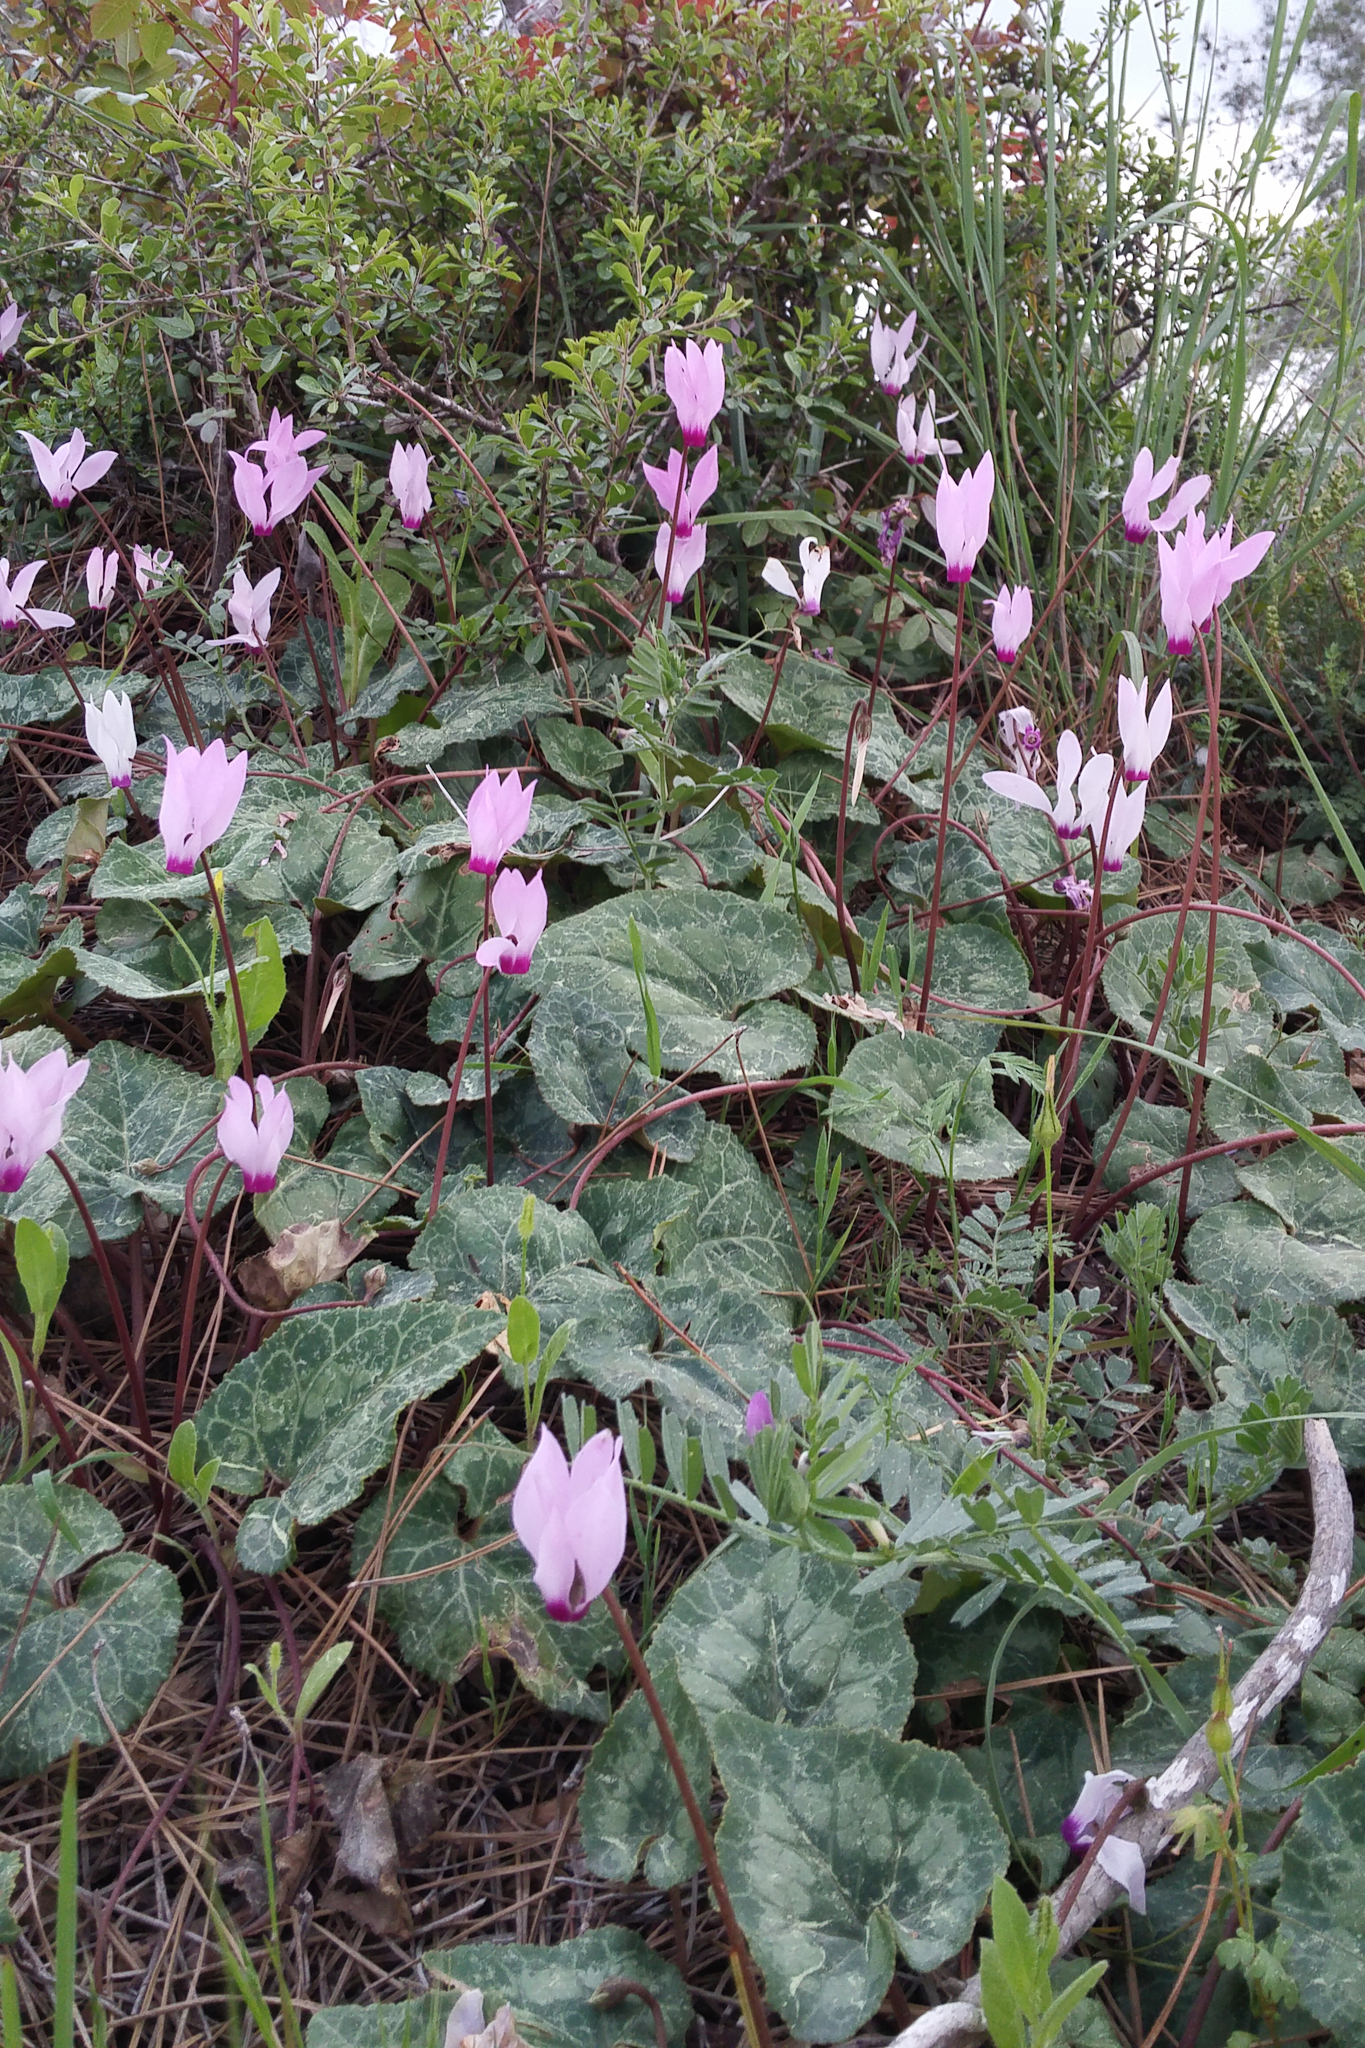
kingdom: Plantae
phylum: Tracheophyta
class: Magnoliopsida
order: Ericales
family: Primulaceae
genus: Cyclamen
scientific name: Cyclamen persicum
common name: Florist's cyclamen
